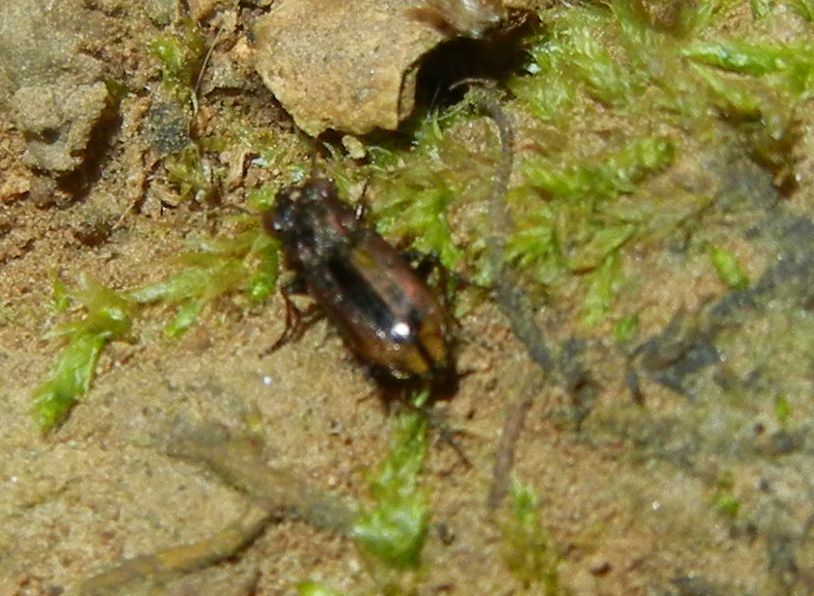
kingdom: Animalia
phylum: Arthropoda
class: Insecta
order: Coleoptera
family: Carabidae
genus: Notiophilus
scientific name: Notiophilus
